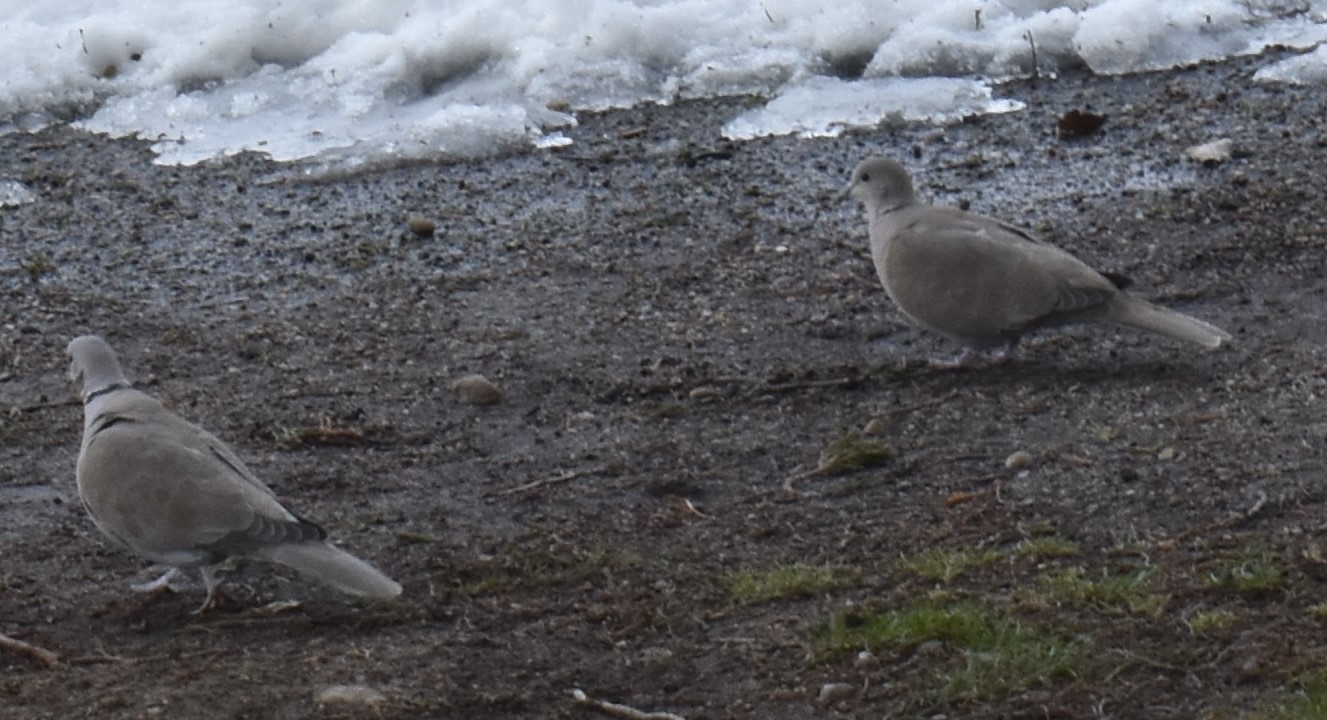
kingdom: Animalia
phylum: Chordata
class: Aves
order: Columbiformes
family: Columbidae
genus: Streptopelia
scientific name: Streptopelia decaocto
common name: Eurasian collared dove
